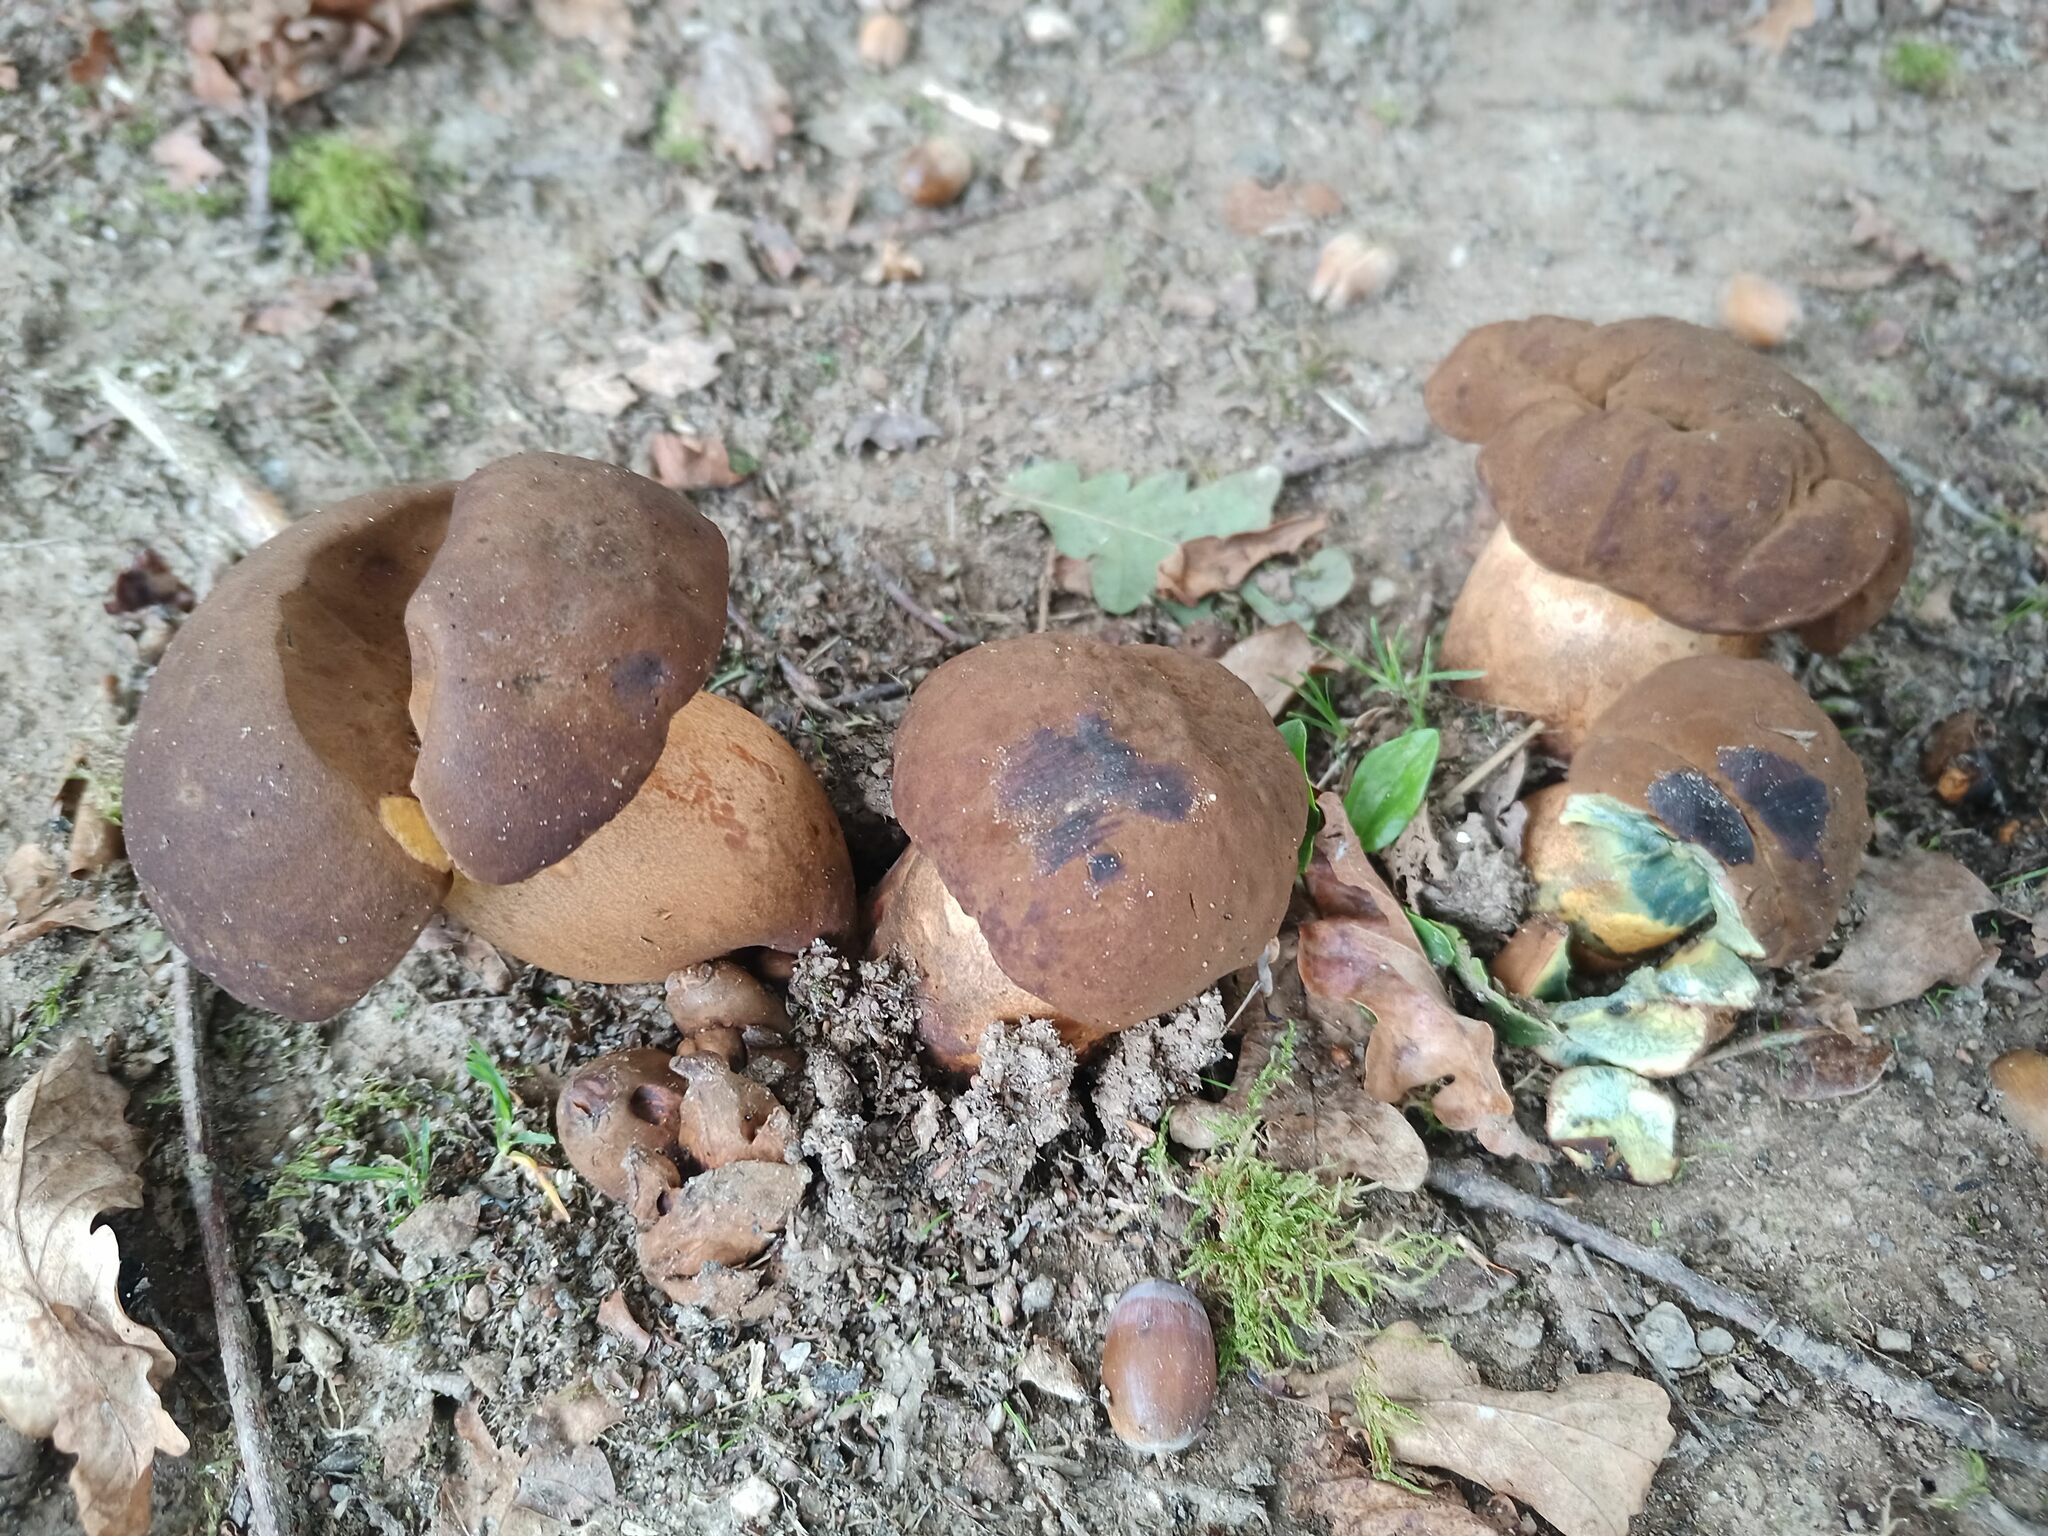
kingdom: Fungi
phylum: Basidiomycota
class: Agaricomycetes
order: Boletales
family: Boletaceae
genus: Lanmaoa
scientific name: Lanmaoa fragrans
